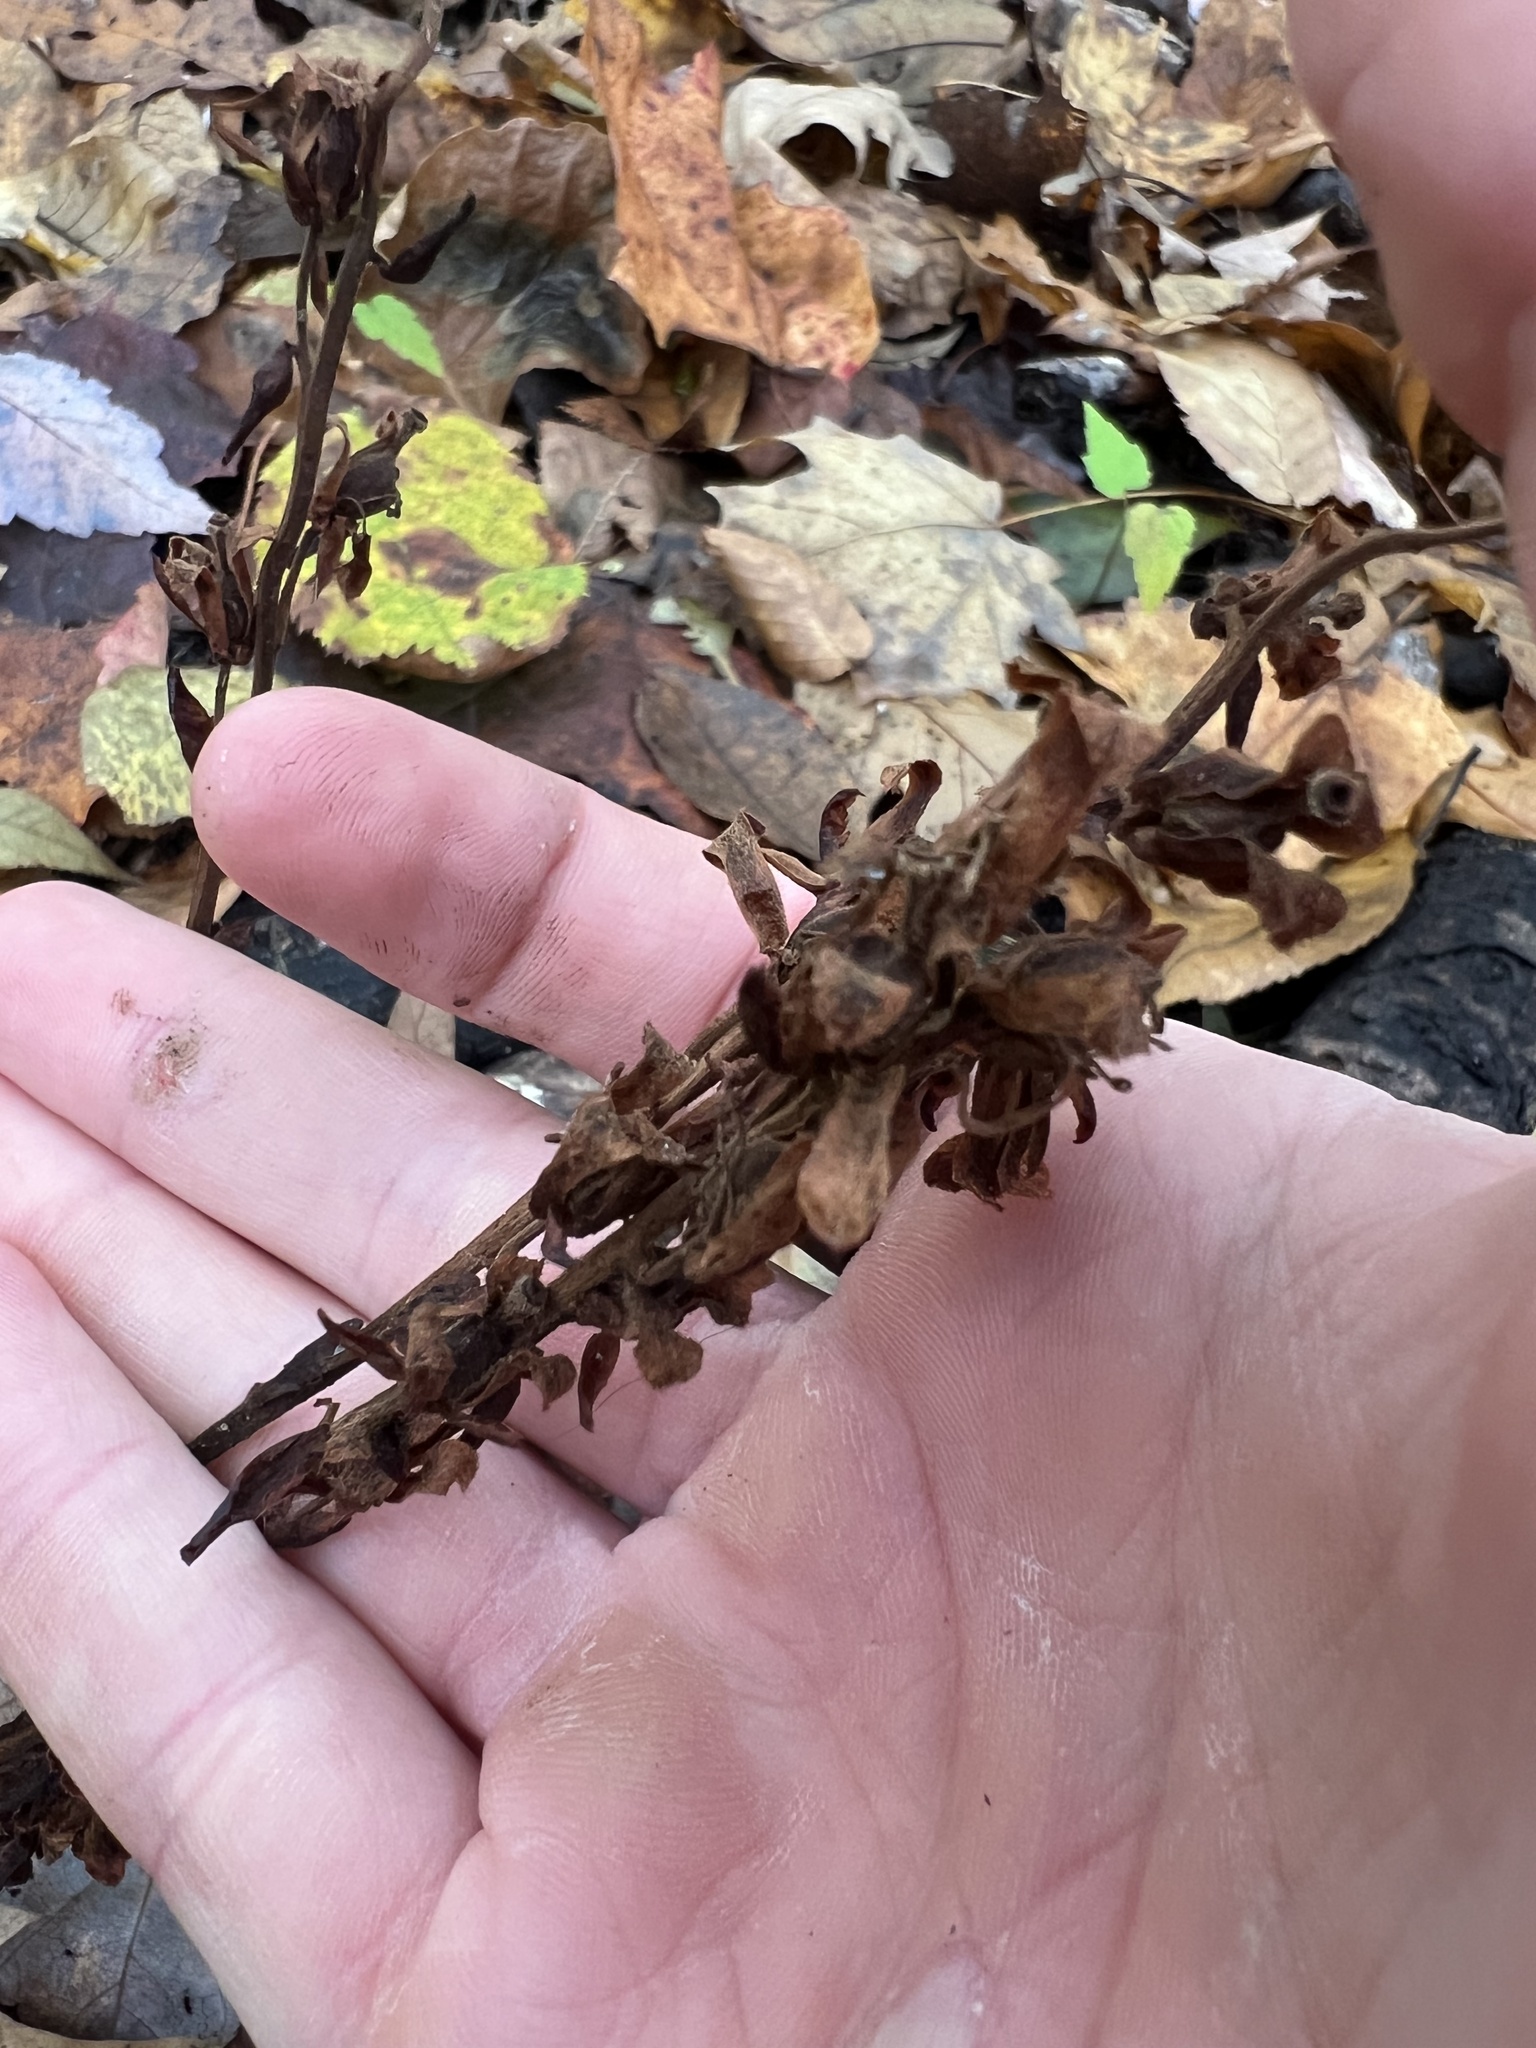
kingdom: Plantae
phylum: Tracheophyta
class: Magnoliopsida
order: Ericales
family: Ericaceae
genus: Hypopitys
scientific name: Hypopitys monotropa
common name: Yellow bird's-nest
